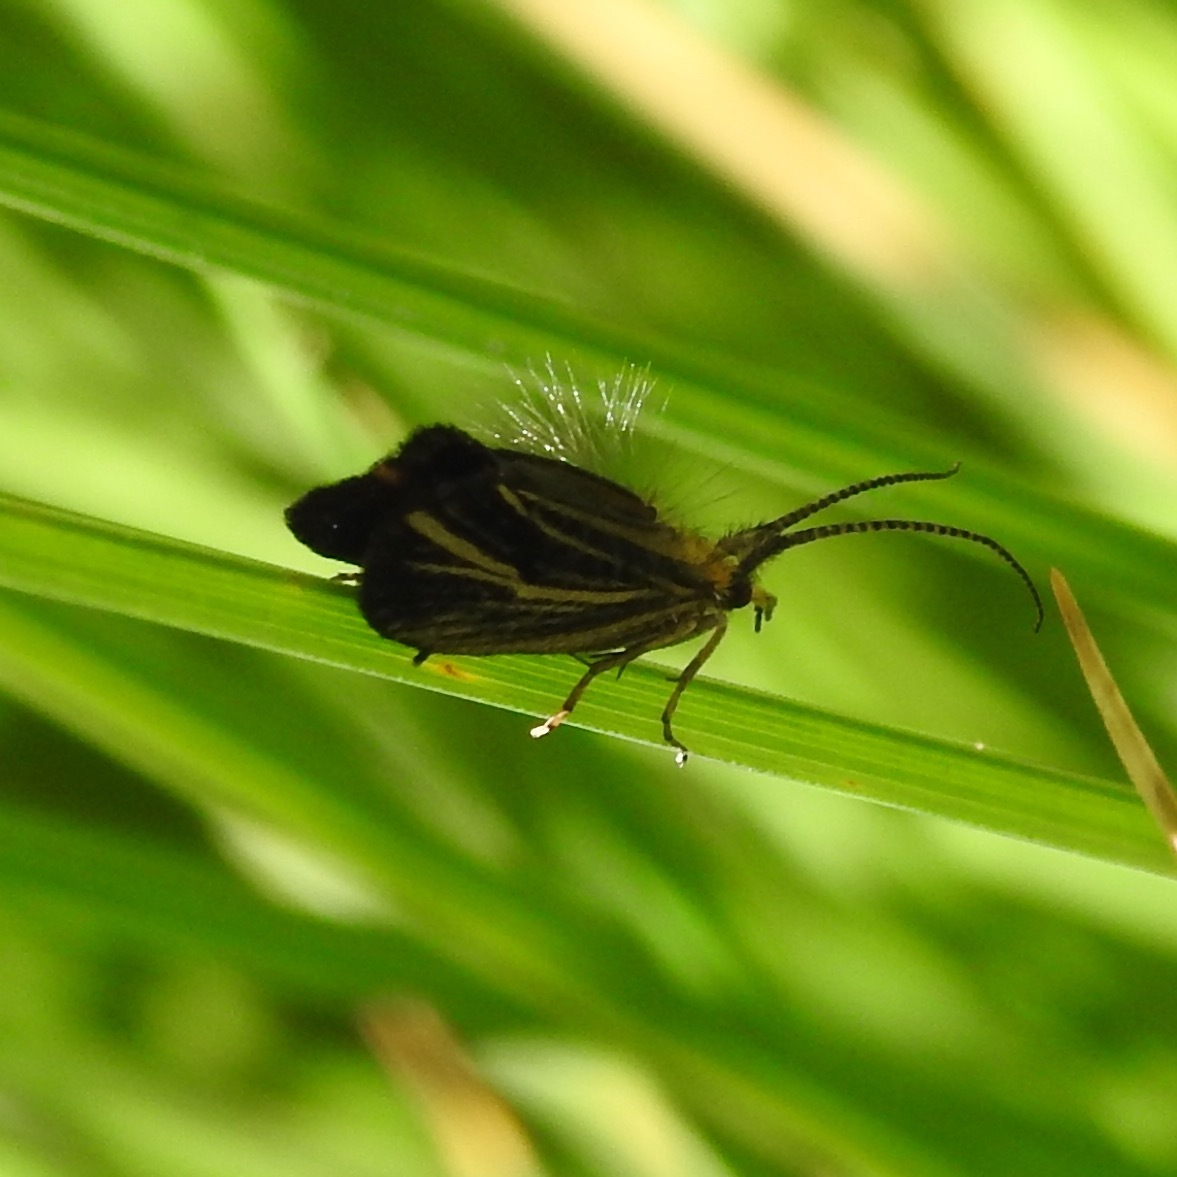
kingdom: Animalia
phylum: Arthropoda
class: Insecta
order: Trichoptera
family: Odontoceridae
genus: Nerophilus
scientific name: Nerophilus californicus
